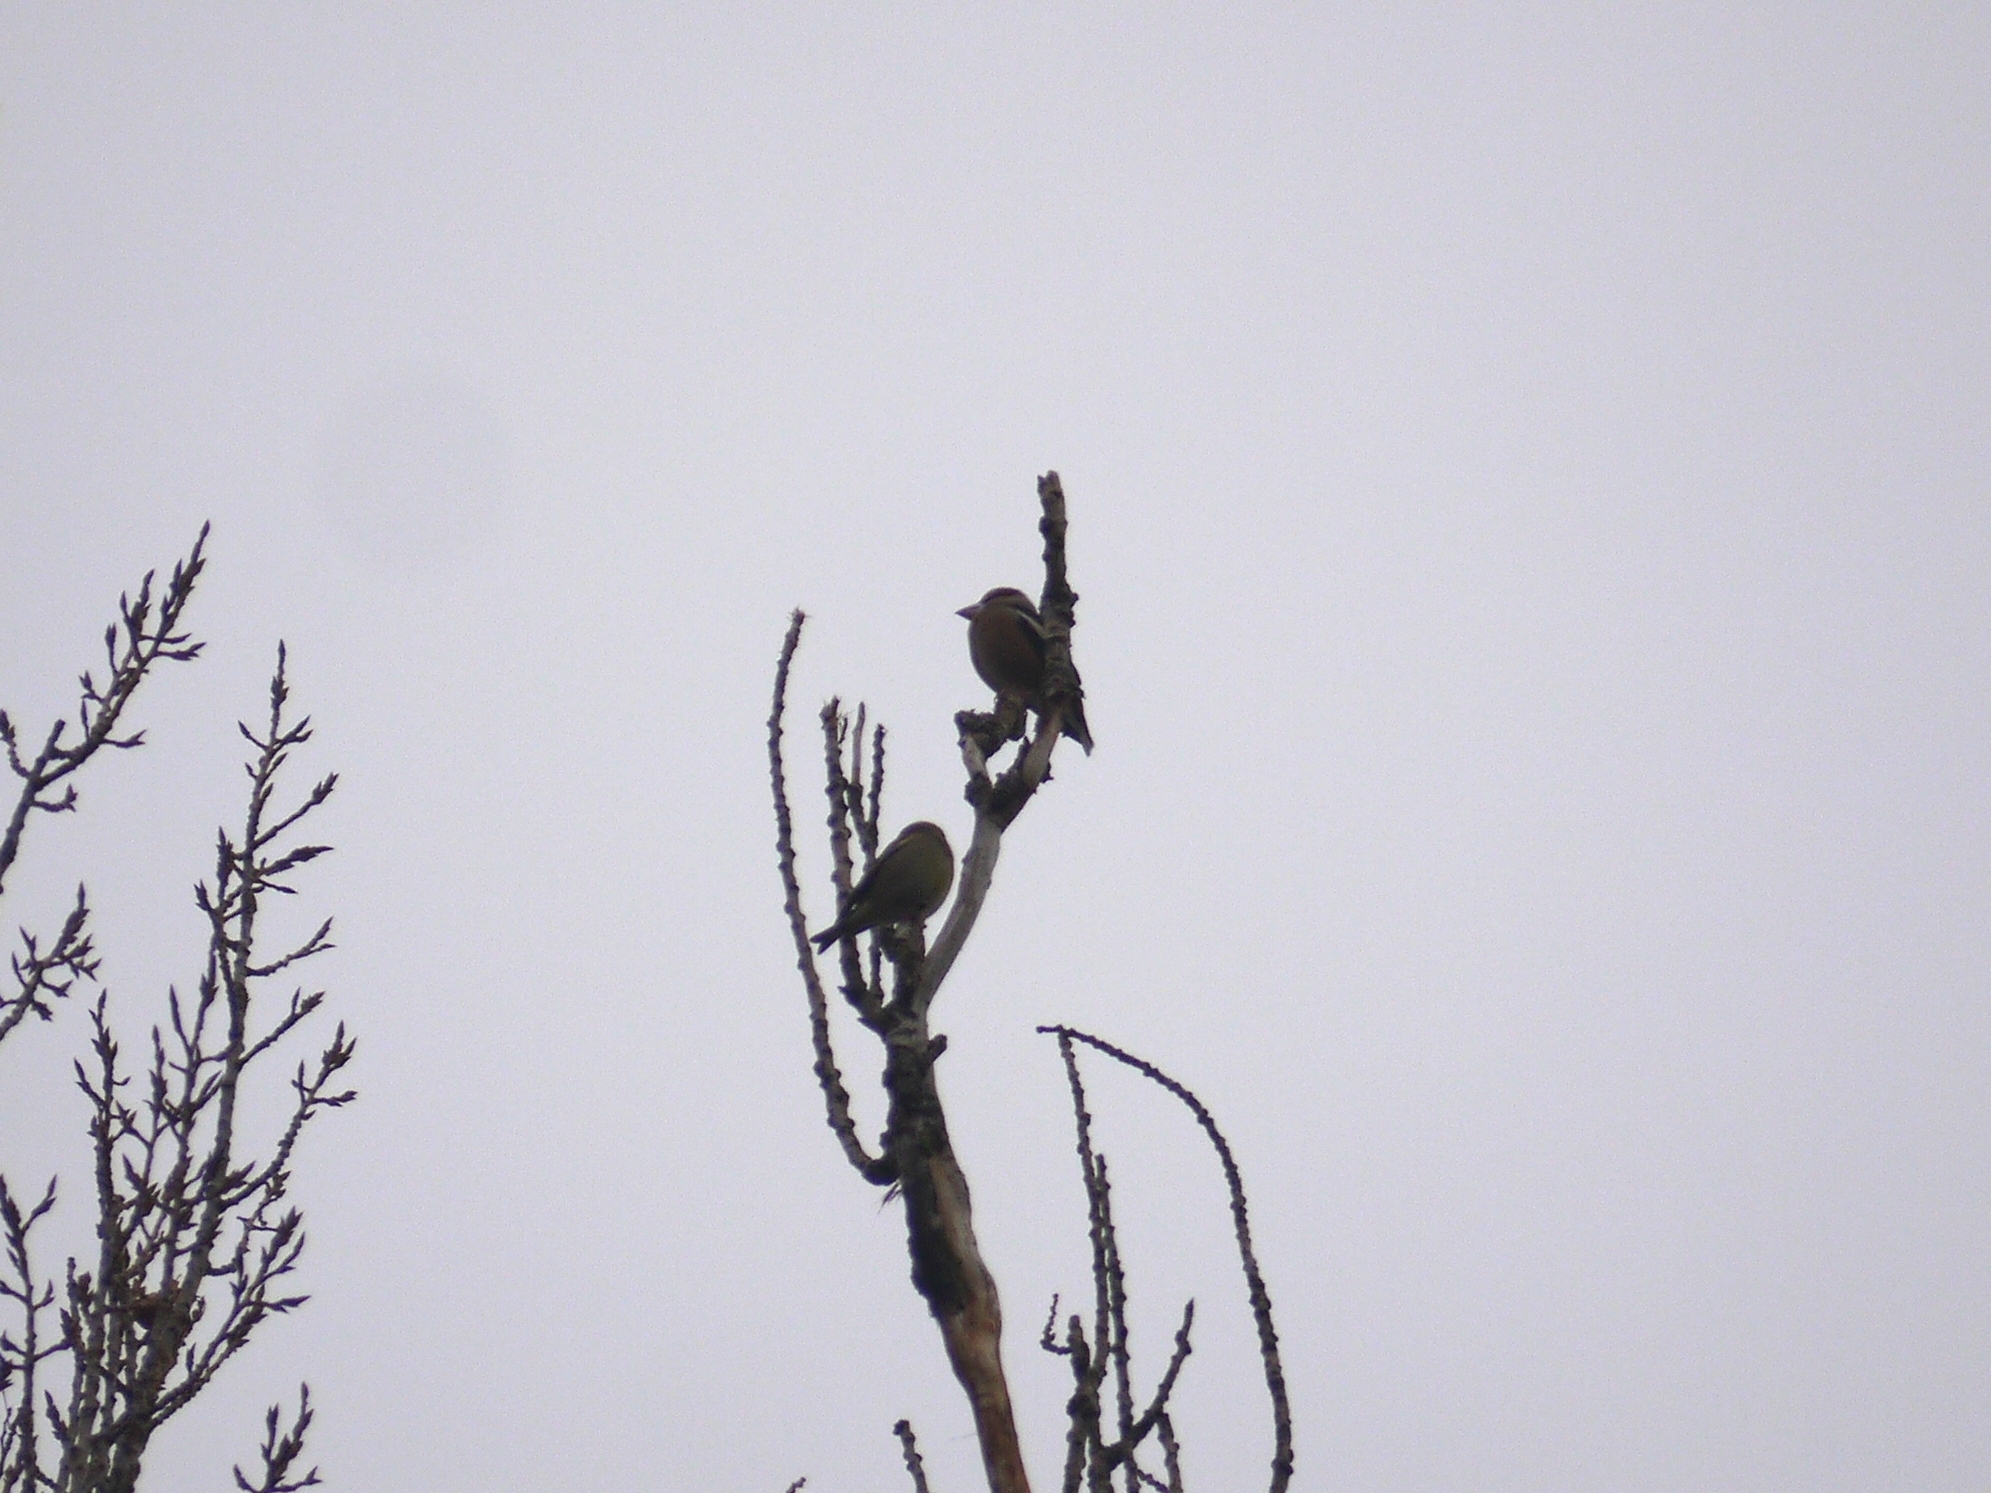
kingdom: Animalia
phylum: Chordata
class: Aves
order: Passeriformes
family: Fringillidae
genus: Coccothraustes
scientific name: Coccothraustes coccothraustes
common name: Hawfinch
